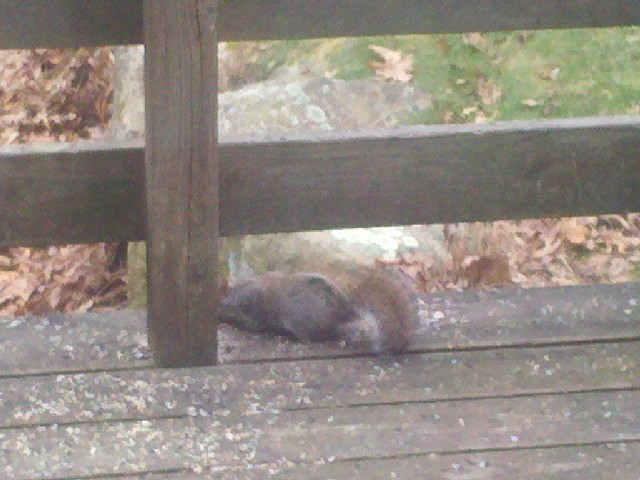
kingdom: Animalia
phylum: Chordata
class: Mammalia
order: Rodentia
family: Sciuridae
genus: Sciurus
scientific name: Sciurus carolinensis
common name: Eastern gray squirrel
